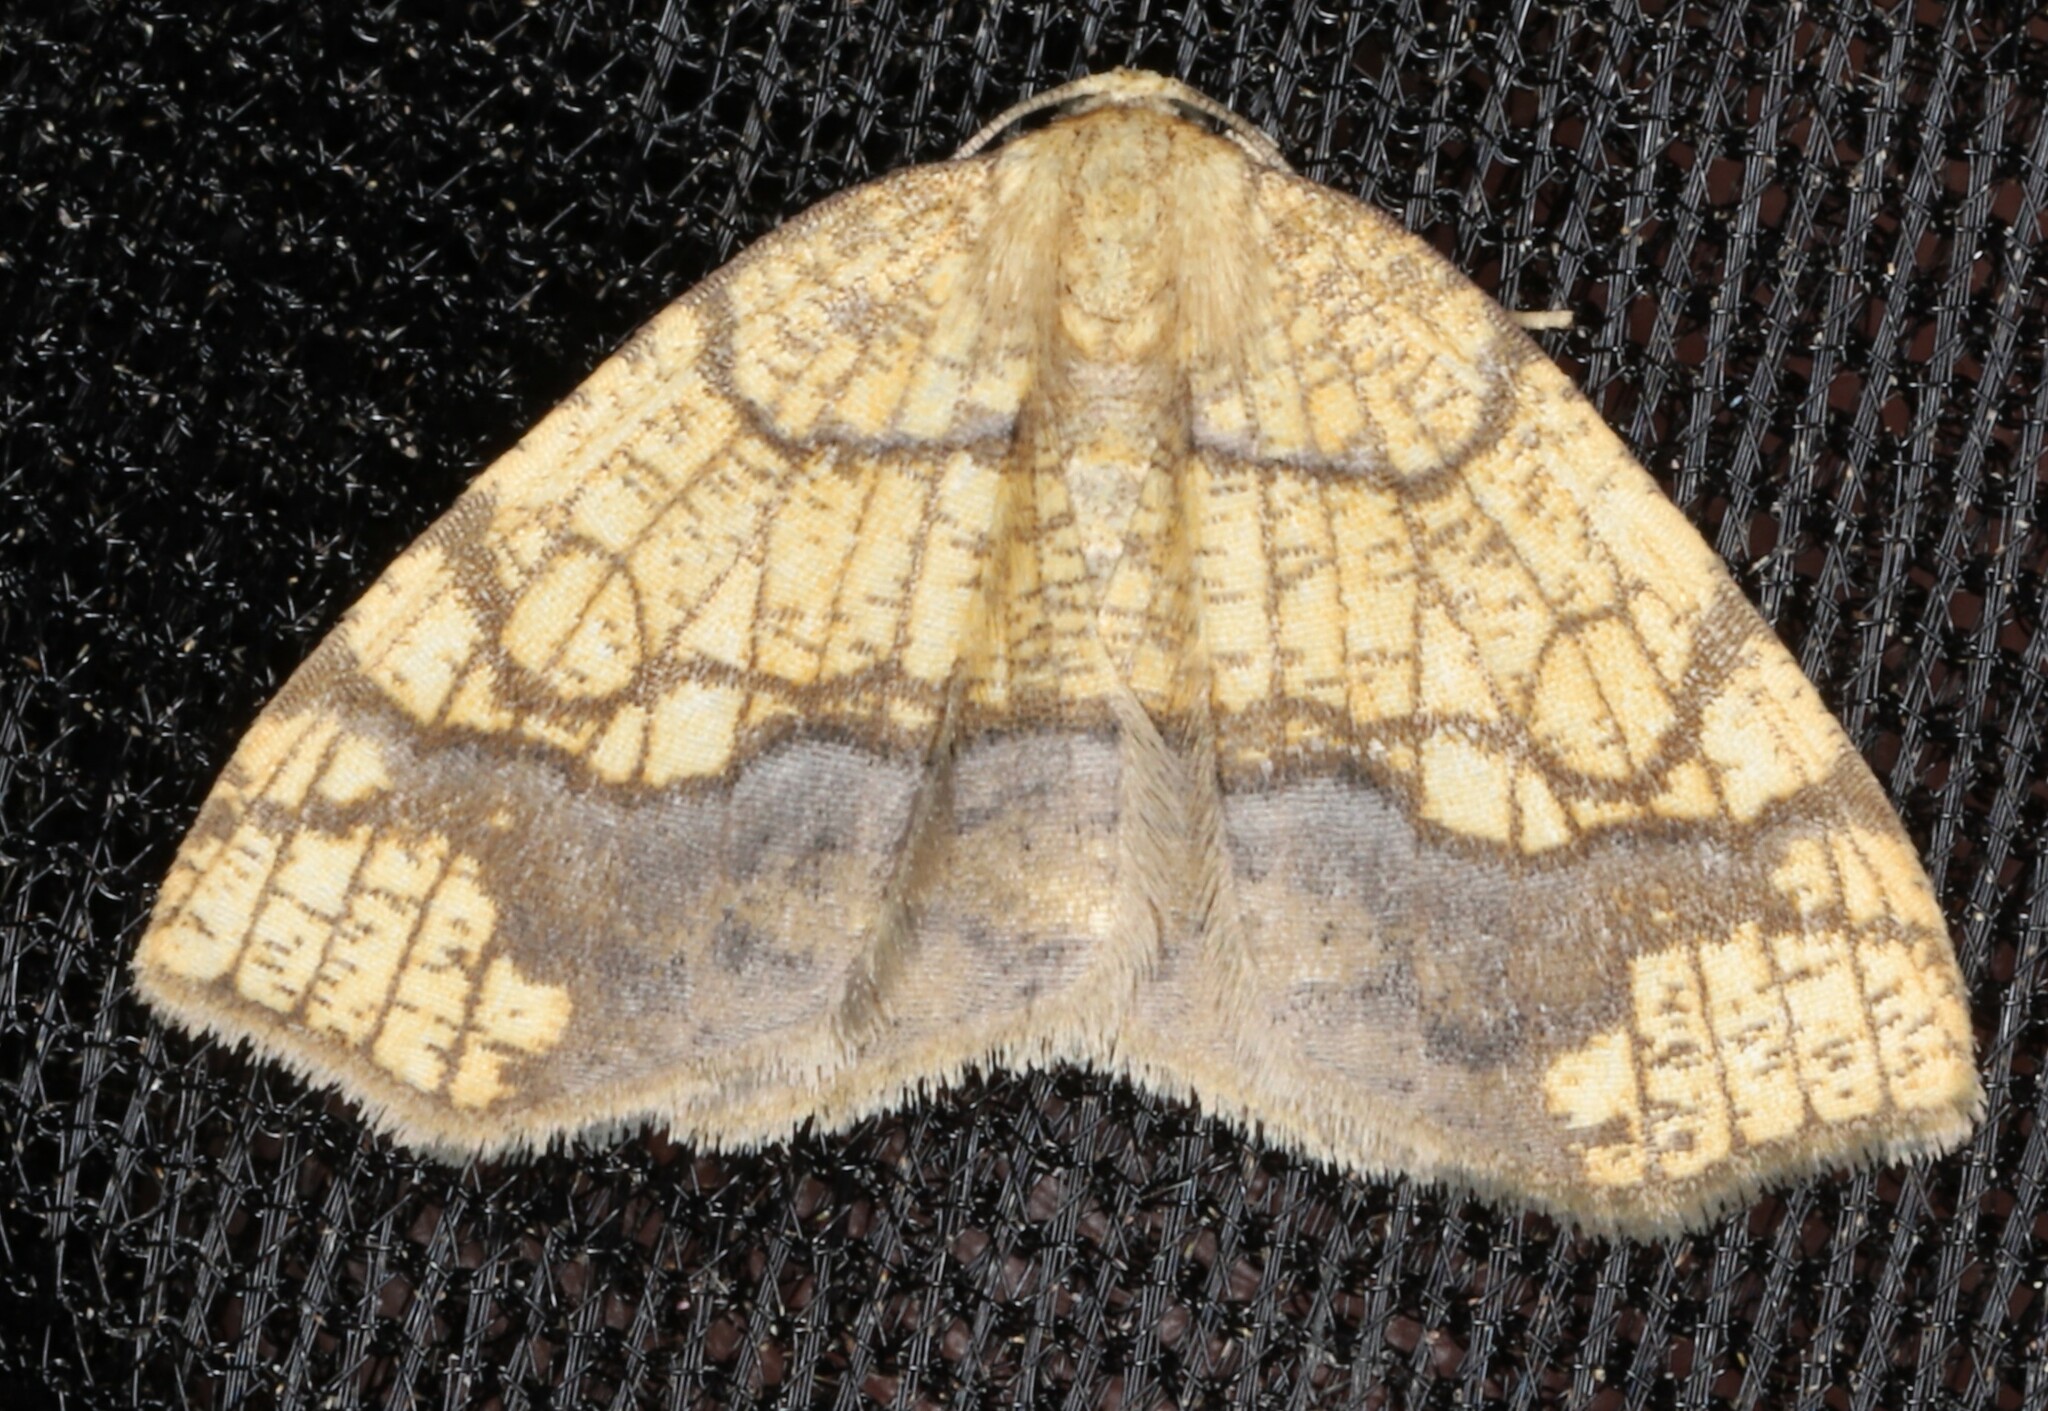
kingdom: Animalia
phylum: Arthropoda
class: Insecta
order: Lepidoptera
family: Geometridae
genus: Nematocampa
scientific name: Nematocampa resistaria
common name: Horned spanworm moth
